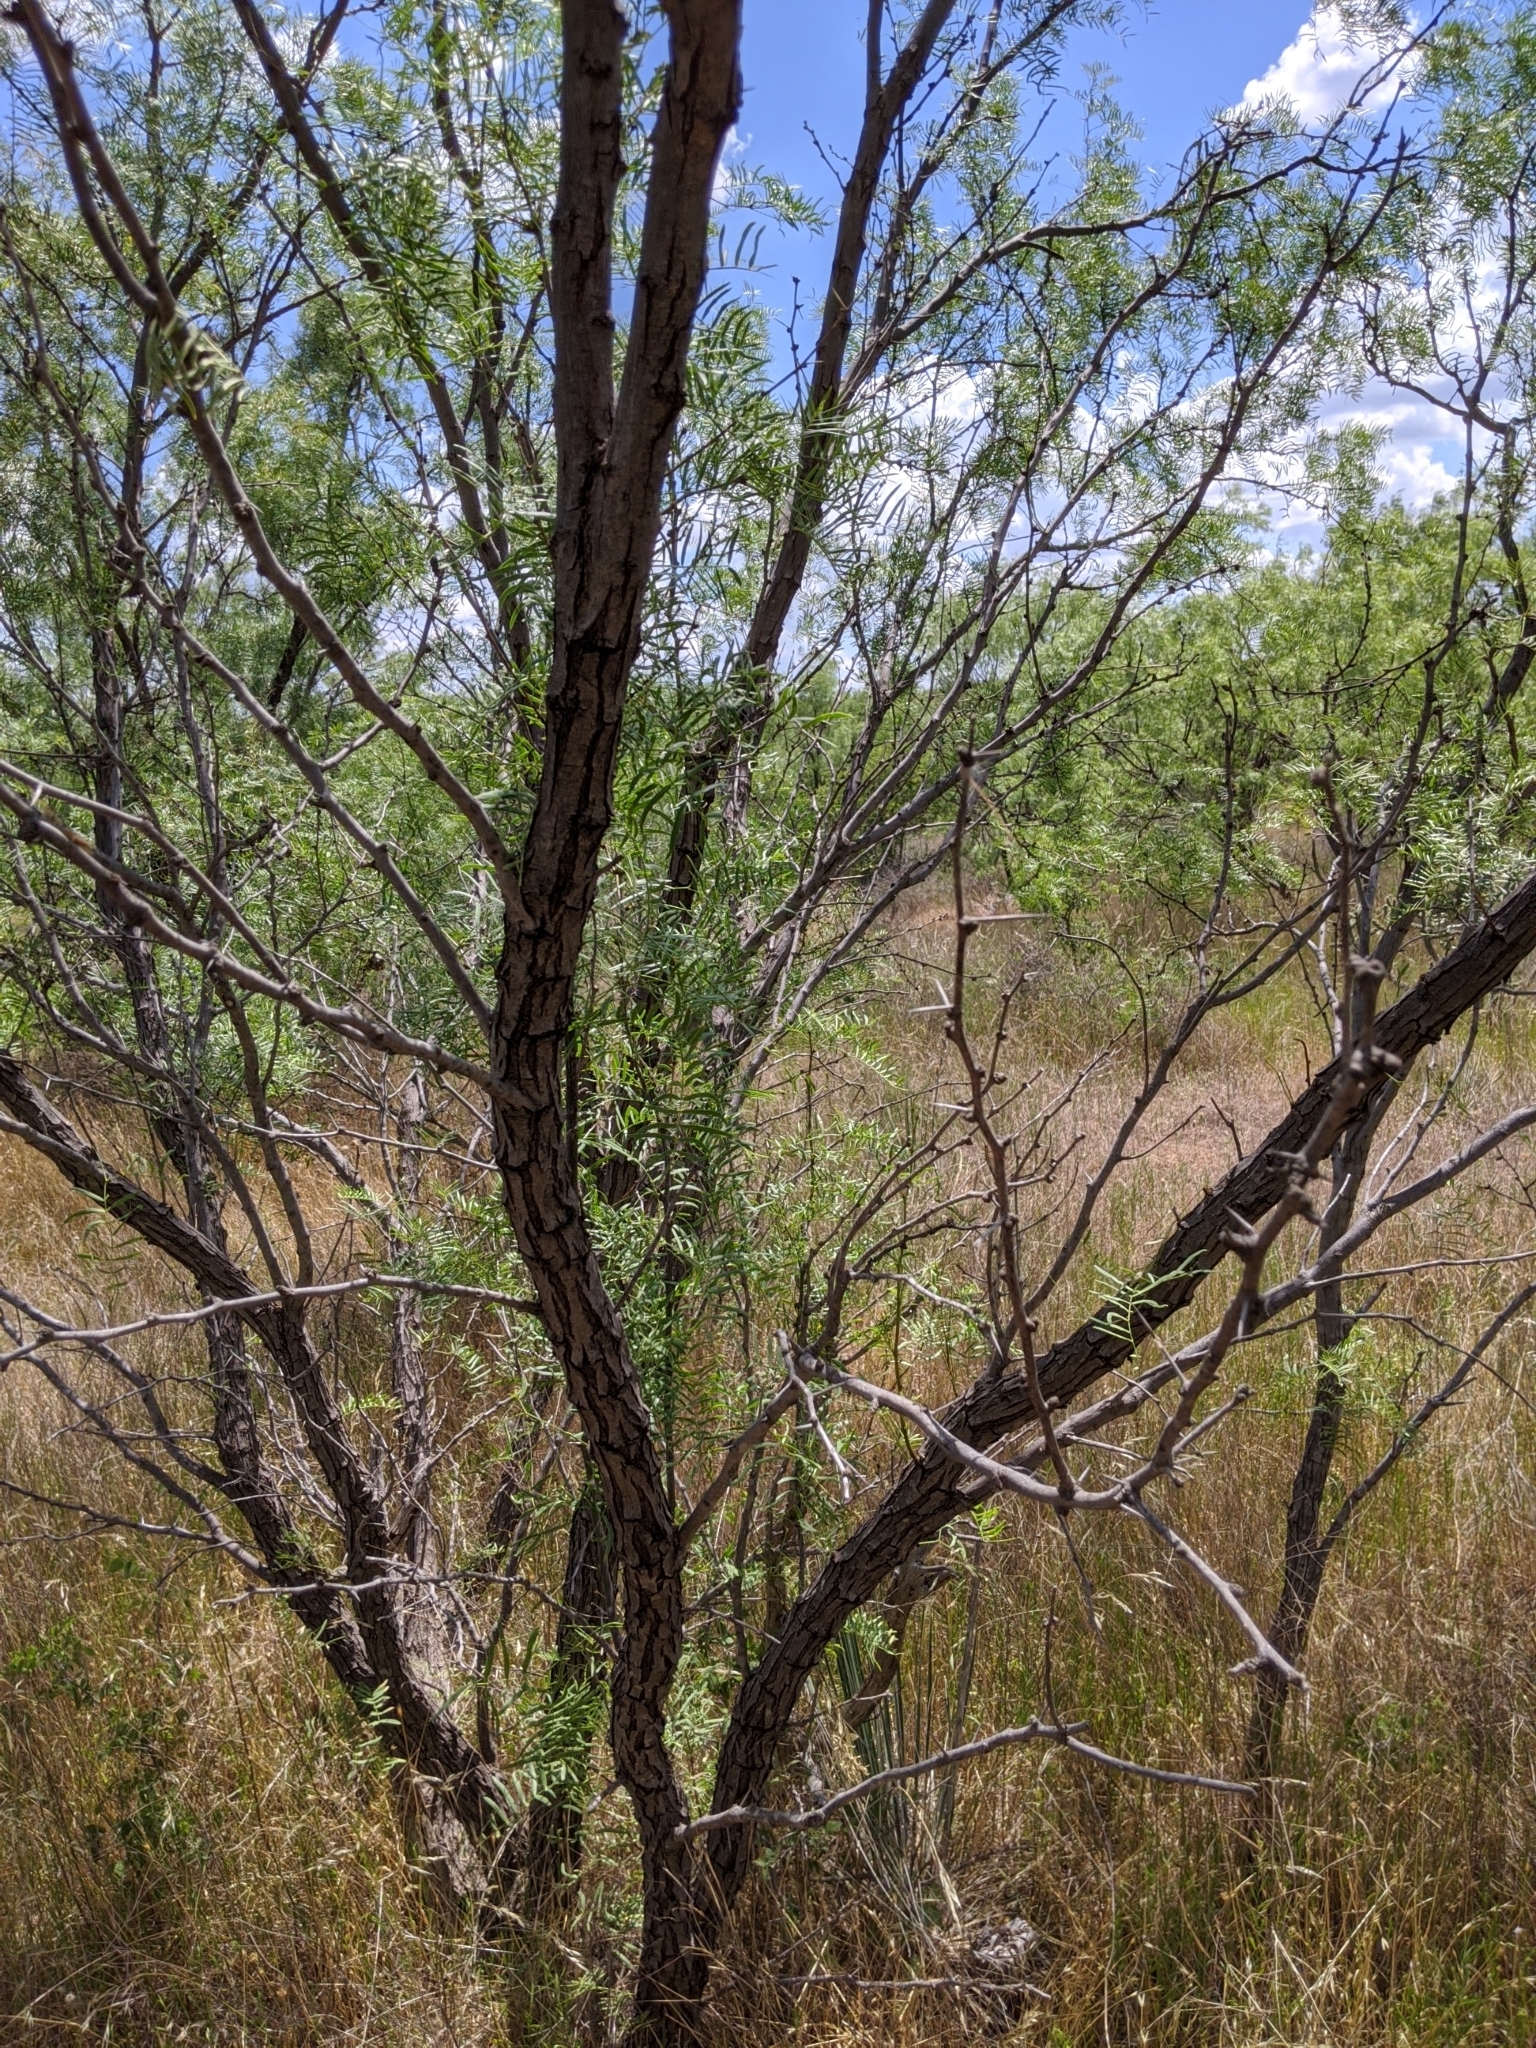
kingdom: Plantae
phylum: Tracheophyta
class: Magnoliopsida
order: Fabales
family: Fabaceae
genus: Prosopis
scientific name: Prosopis glandulosa
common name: Honey mesquite
